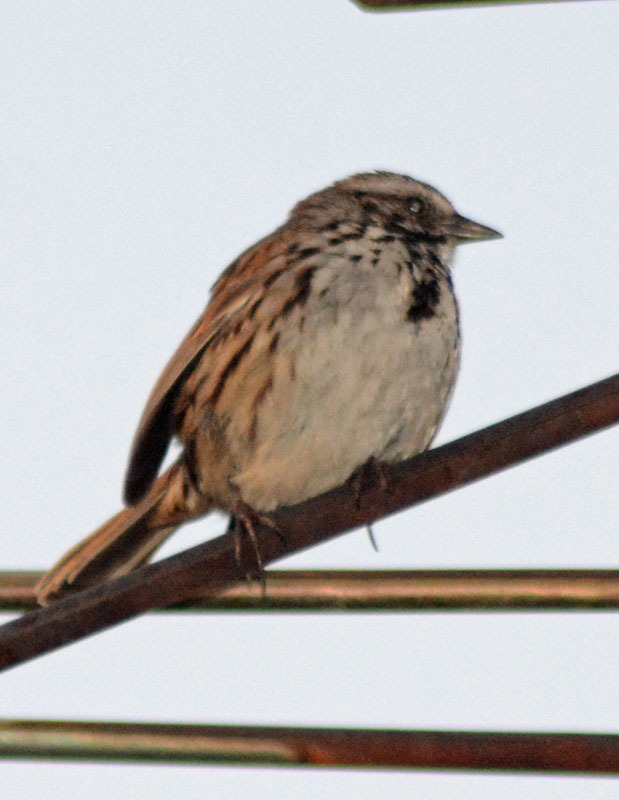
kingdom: Animalia
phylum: Chordata
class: Aves
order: Passeriformes
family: Passerellidae
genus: Melospiza
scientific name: Melospiza melodia
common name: Song sparrow
